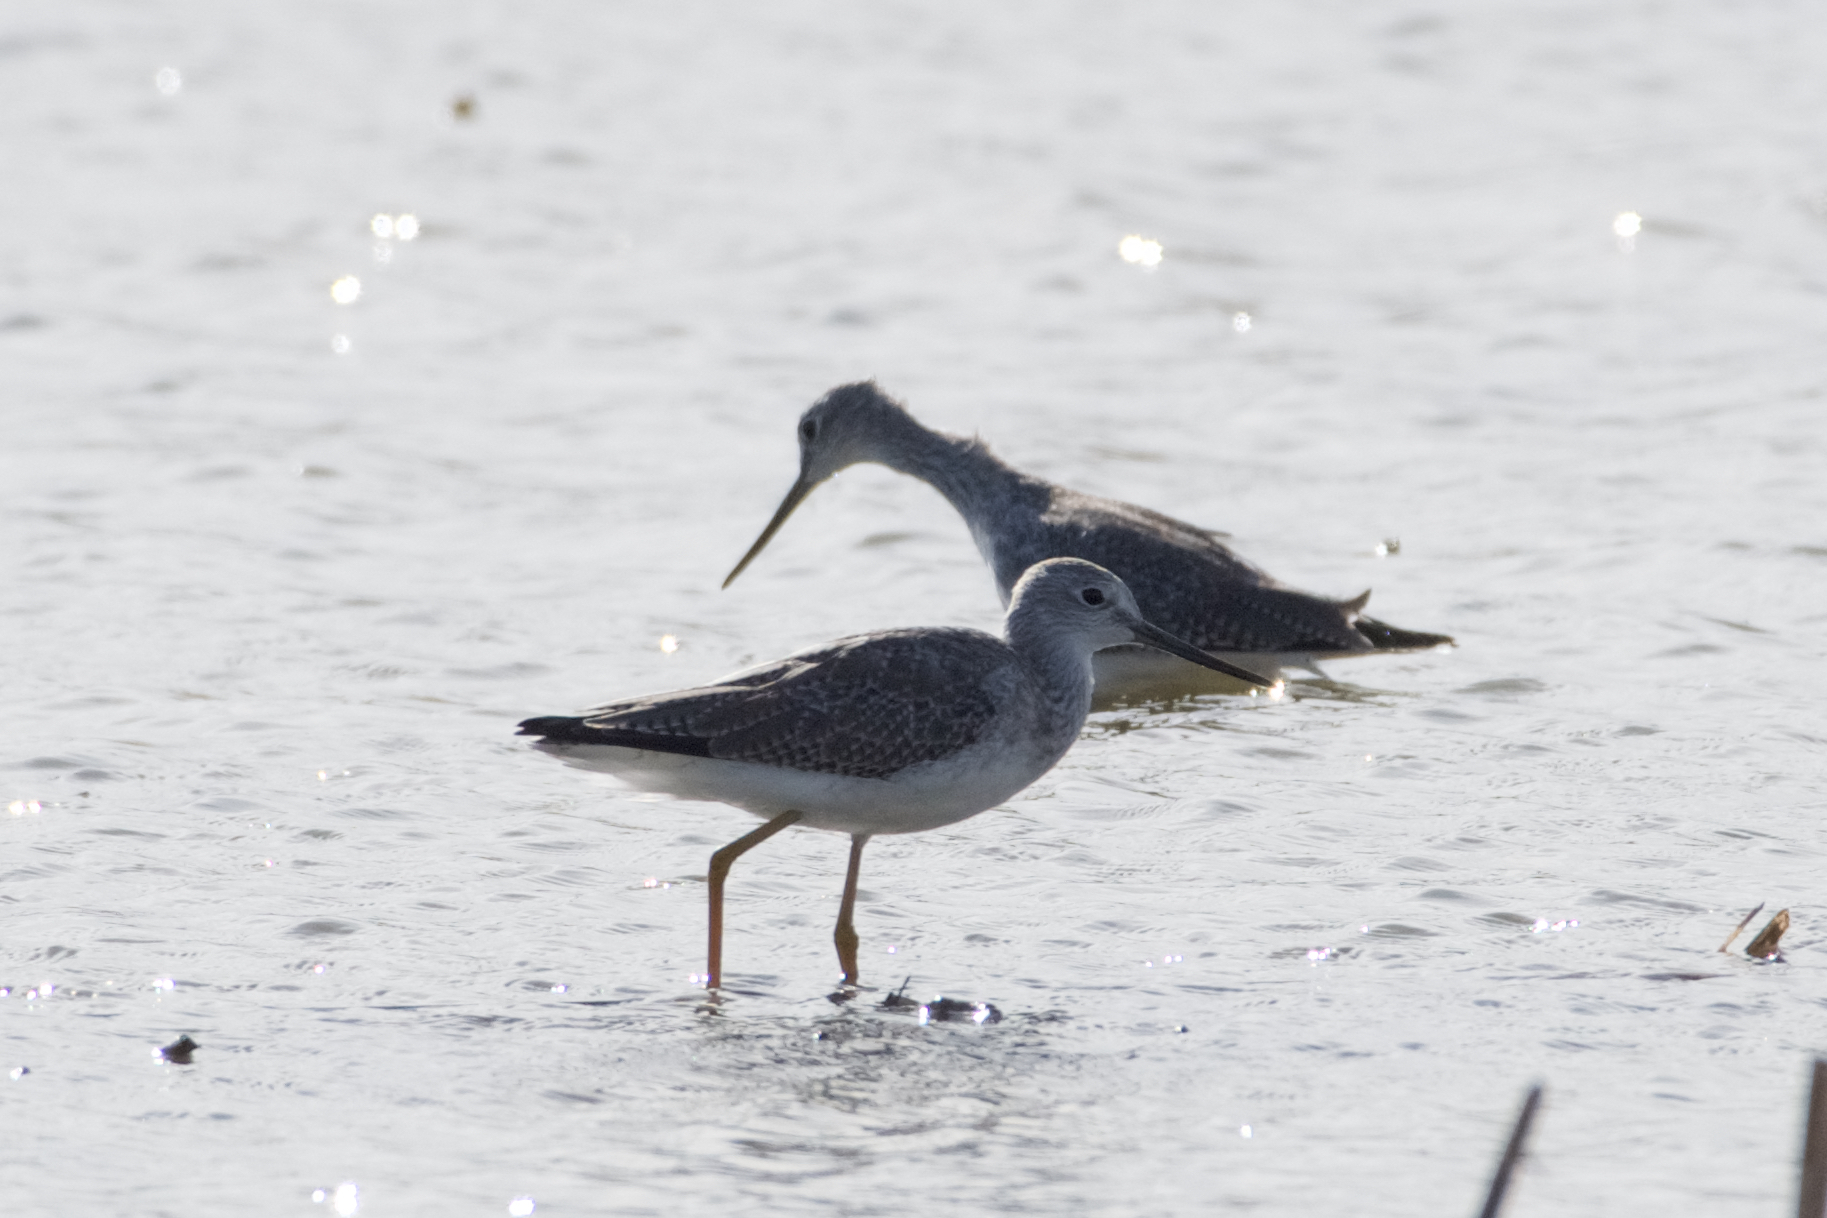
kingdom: Animalia
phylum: Chordata
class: Aves
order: Charadriiformes
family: Scolopacidae
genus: Tringa
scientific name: Tringa melanoleuca
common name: Greater yellowlegs
